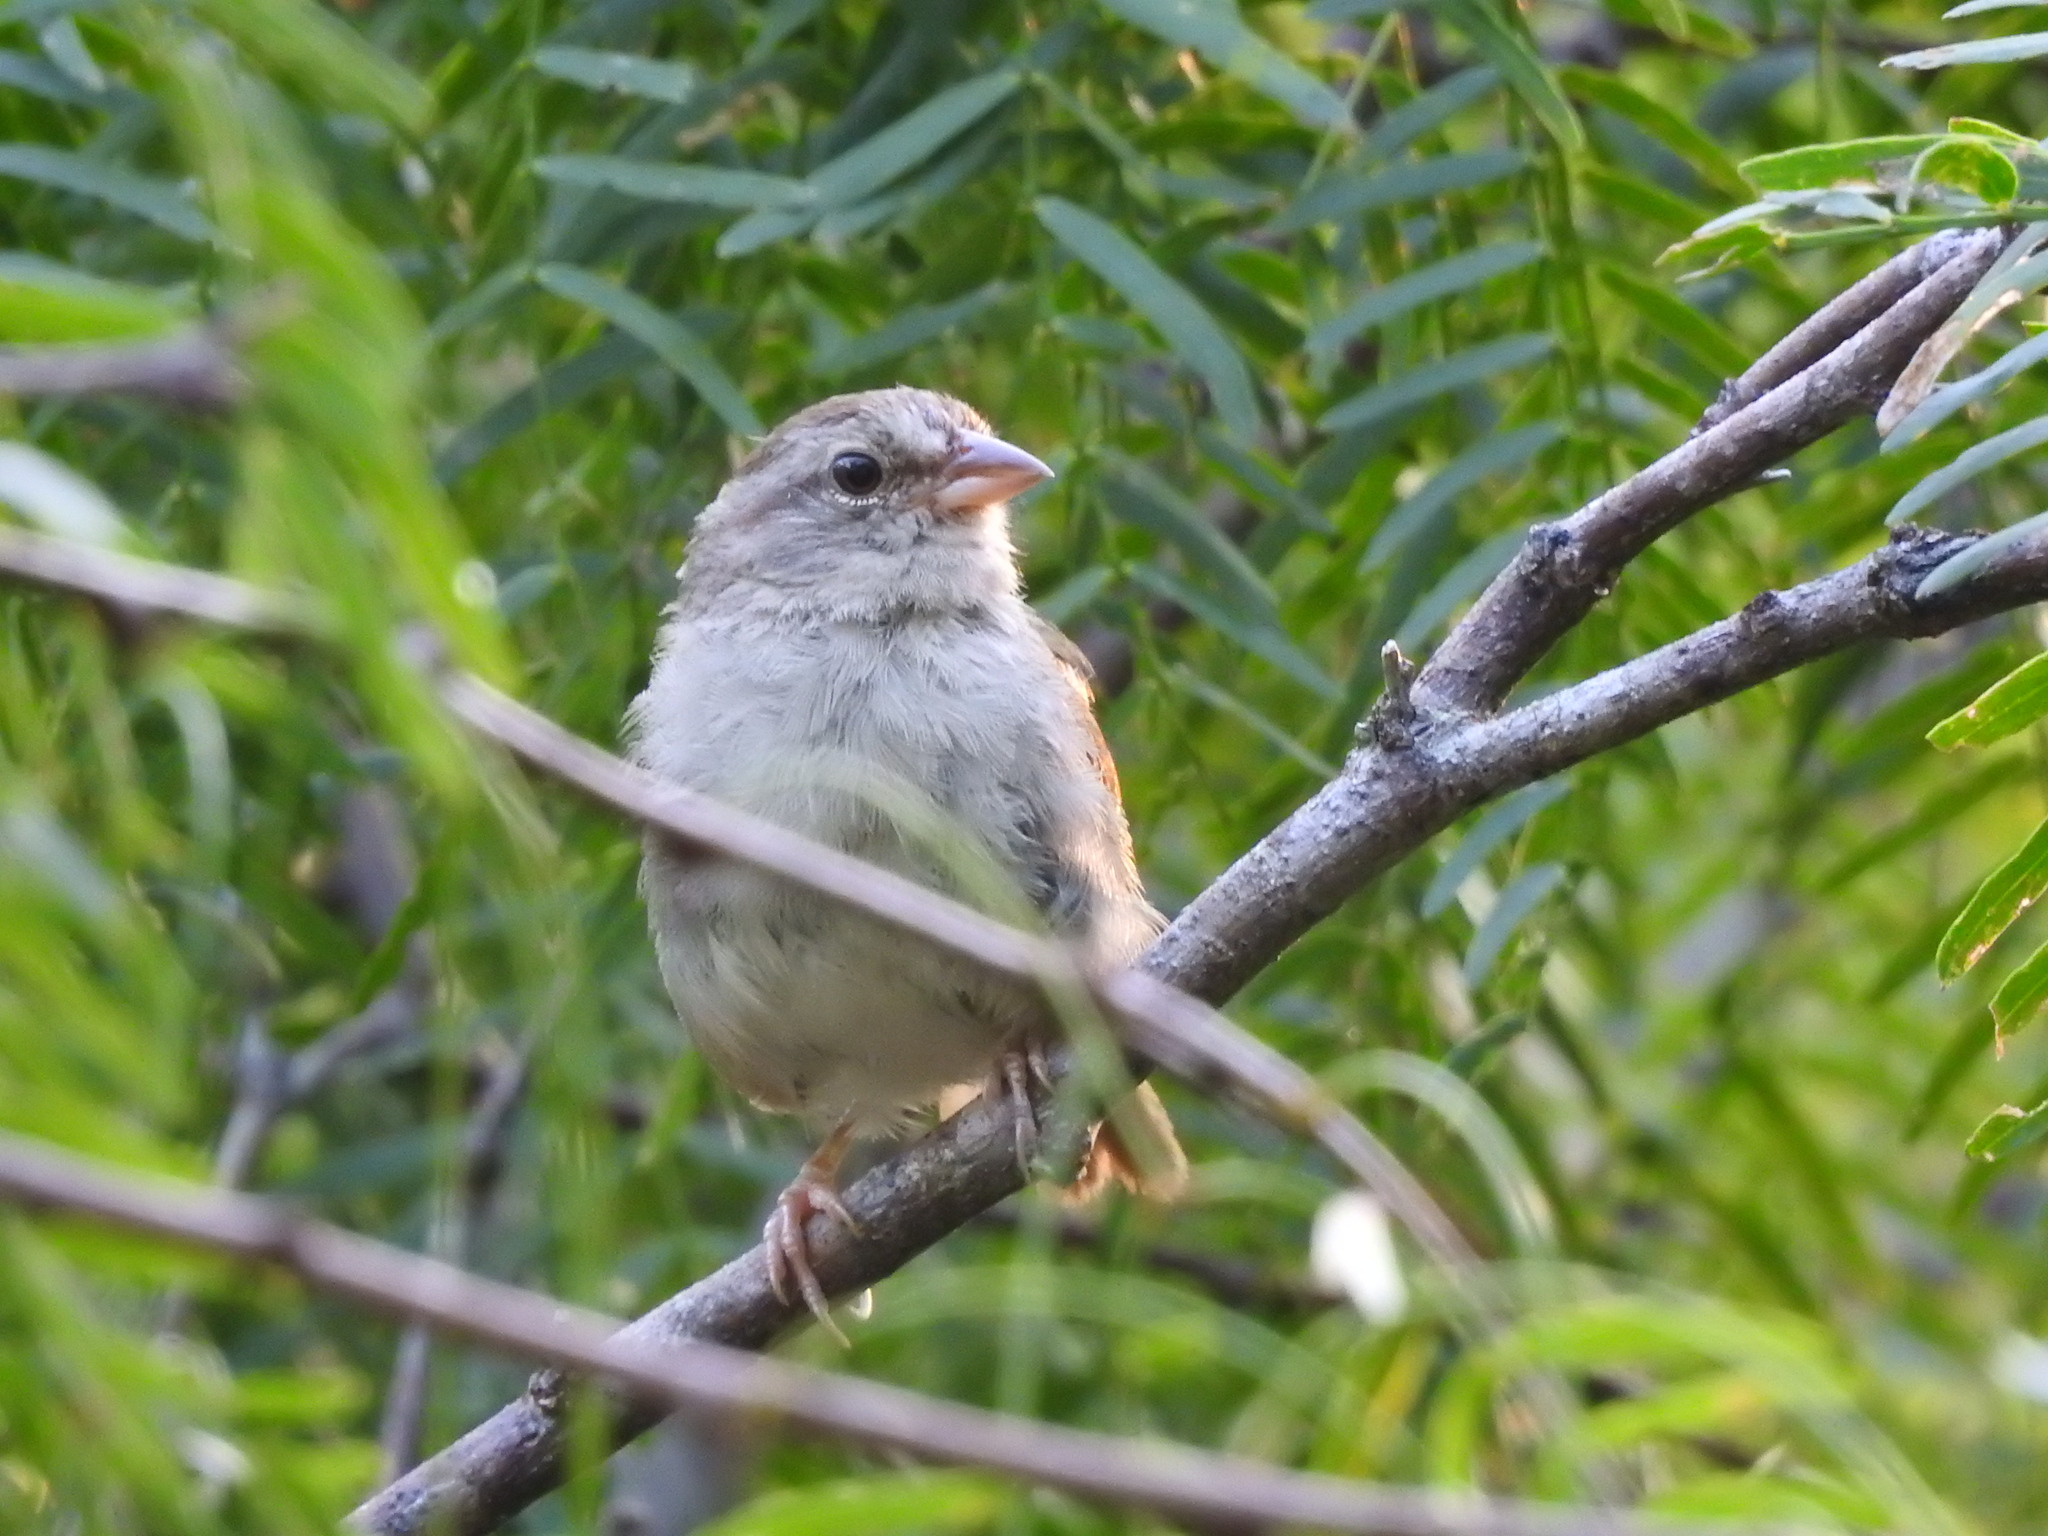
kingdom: Animalia
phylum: Chordata
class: Aves
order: Passeriformes
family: Passerellidae
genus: Arremonops
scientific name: Arremonops rufivirgatus
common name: Olive sparrow
